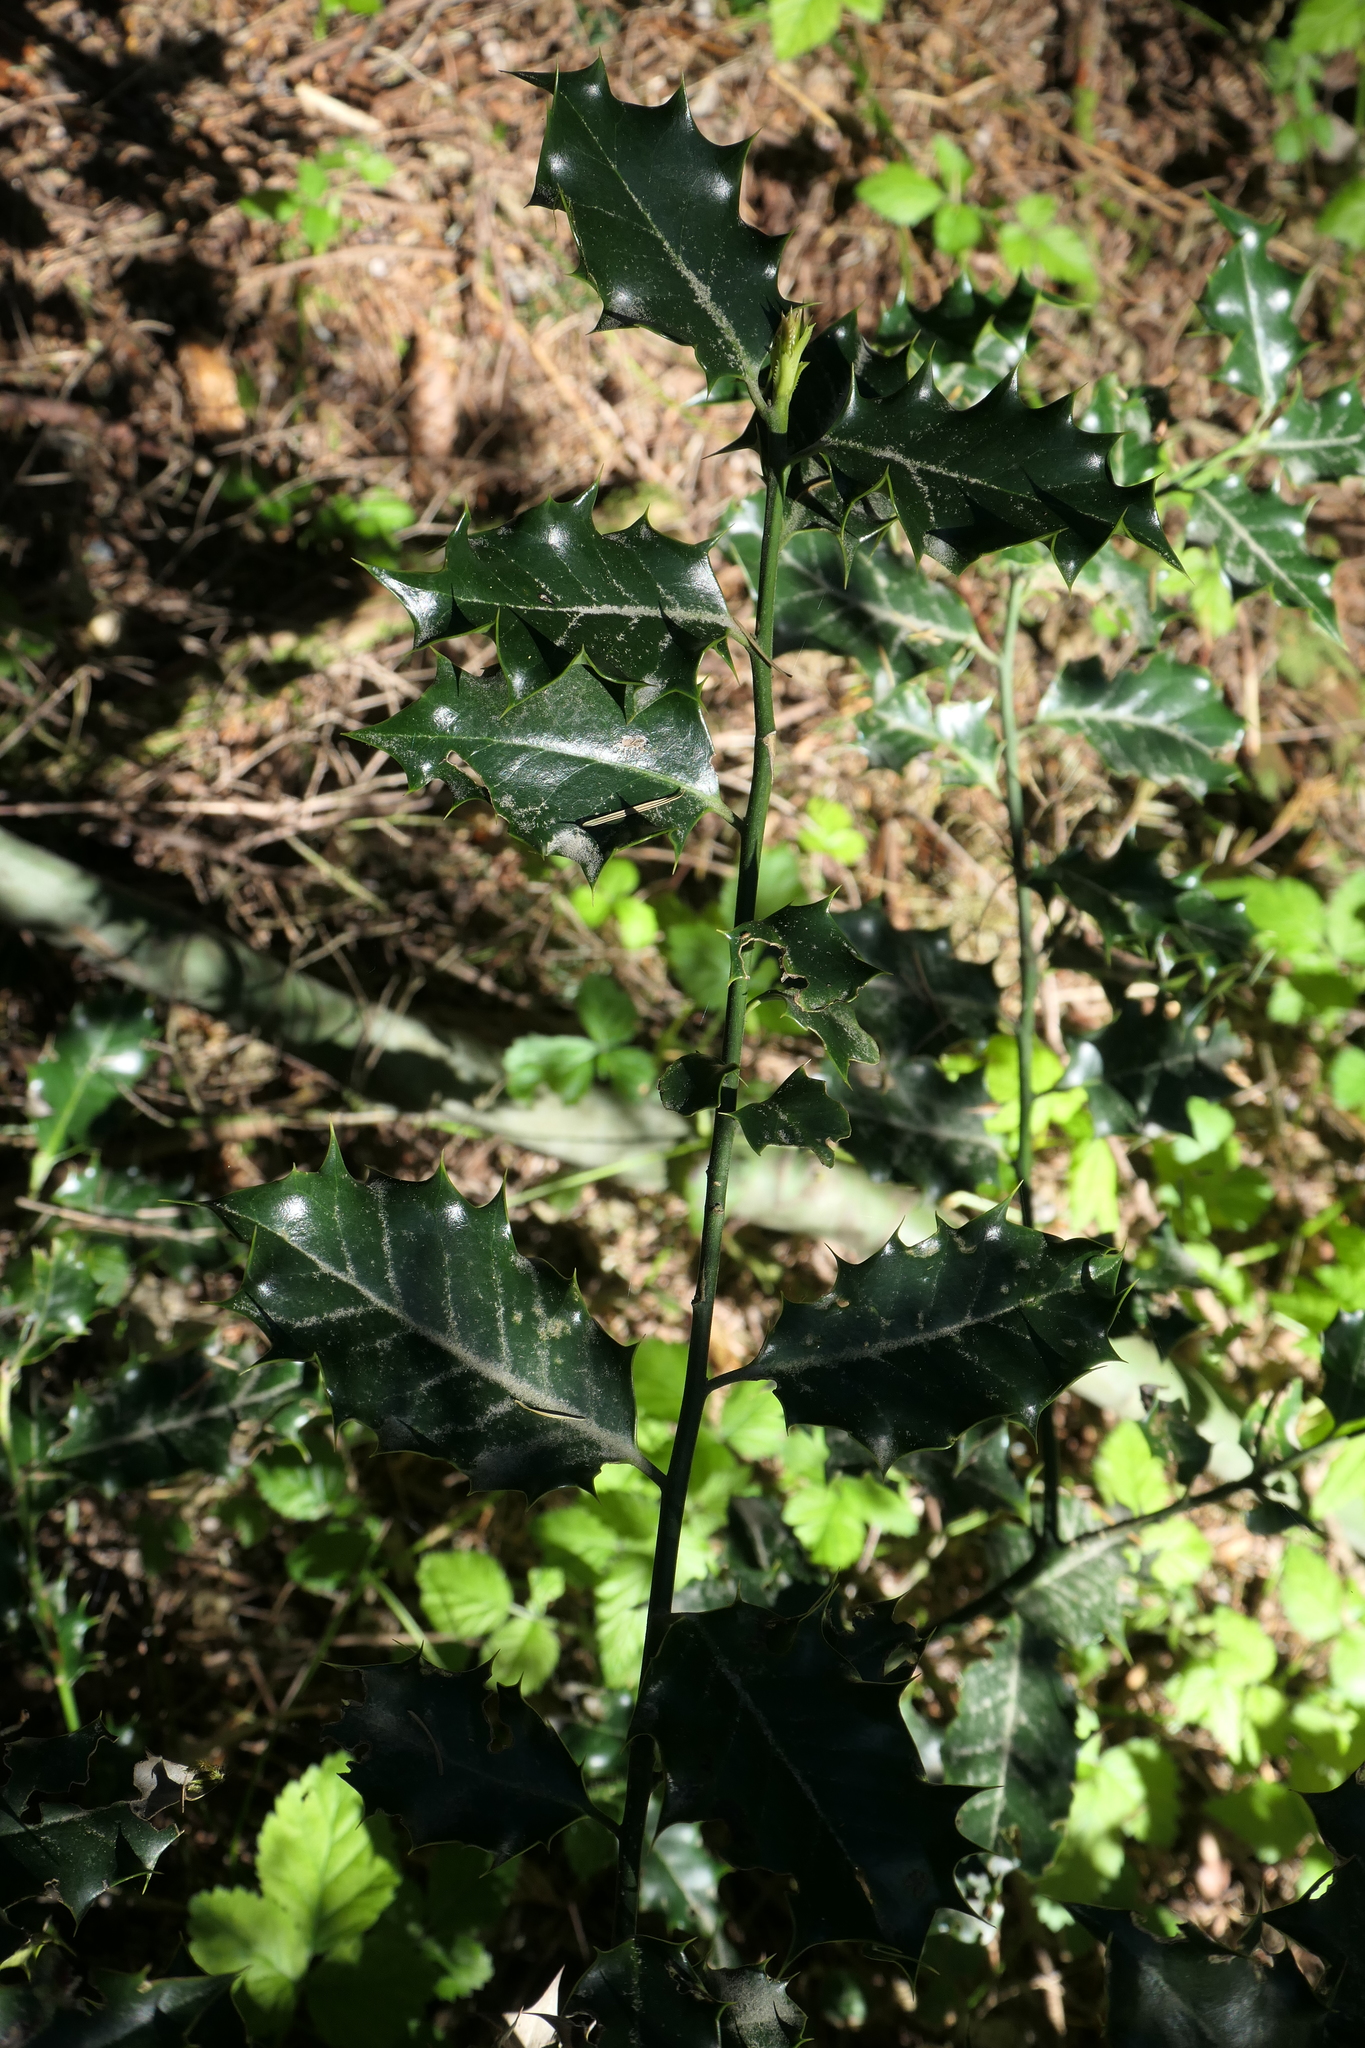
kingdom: Plantae
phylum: Tracheophyta
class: Magnoliopsida
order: Aquifoliales
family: Aquifoliaceae
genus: Ilex
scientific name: Ilex aquifolium
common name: English holly
